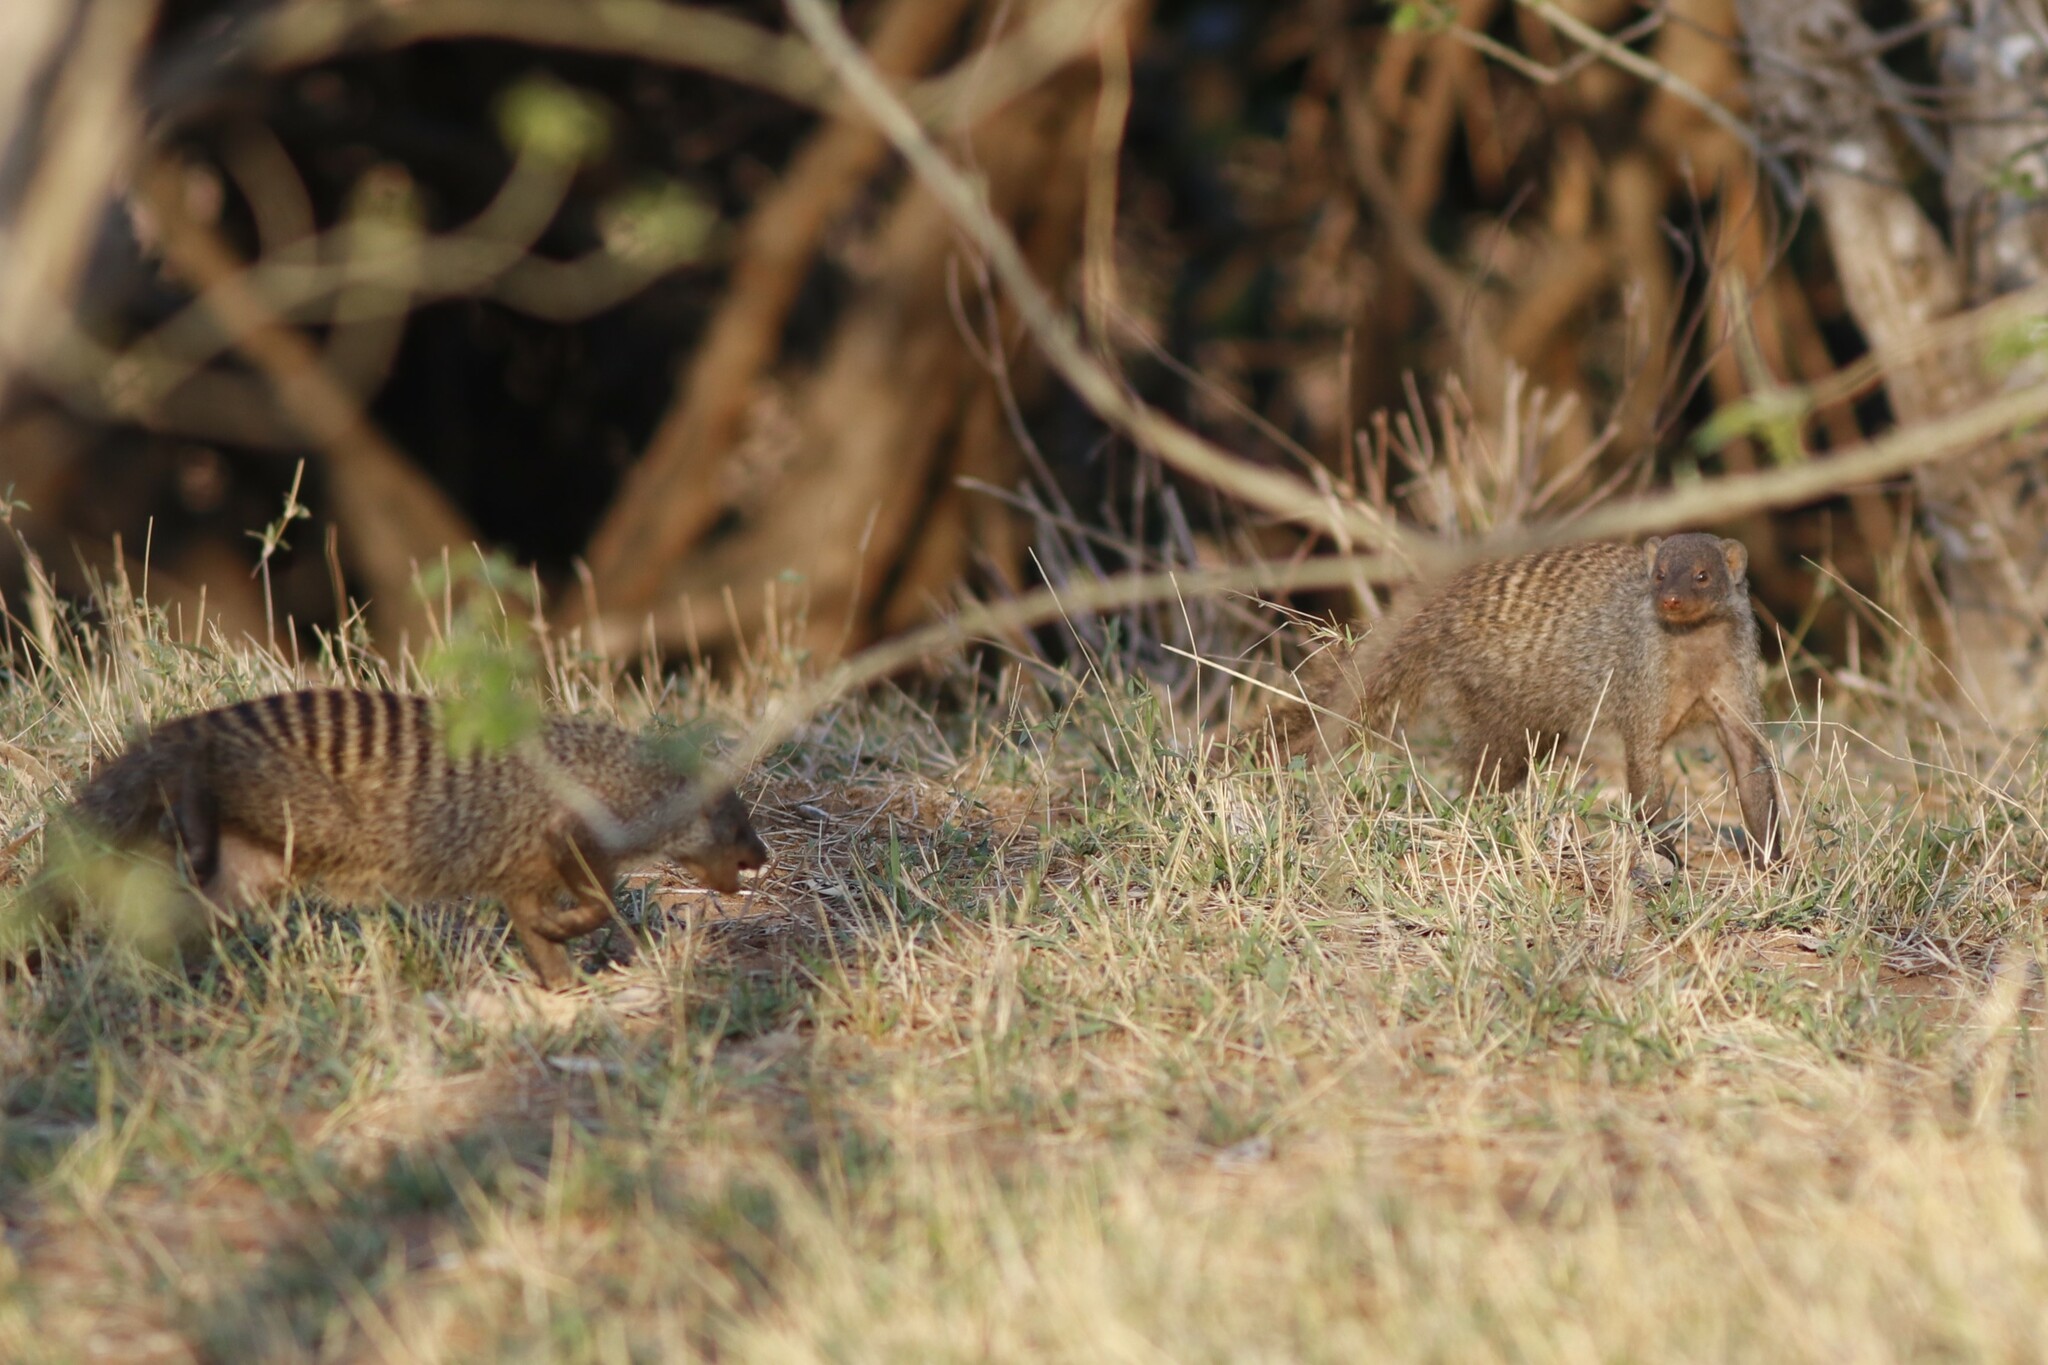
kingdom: Animalia
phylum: Chordata
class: Mammalia
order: Carnivora
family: Herpestidae
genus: Mungos
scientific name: Mungos mungo
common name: Banded mongoose
